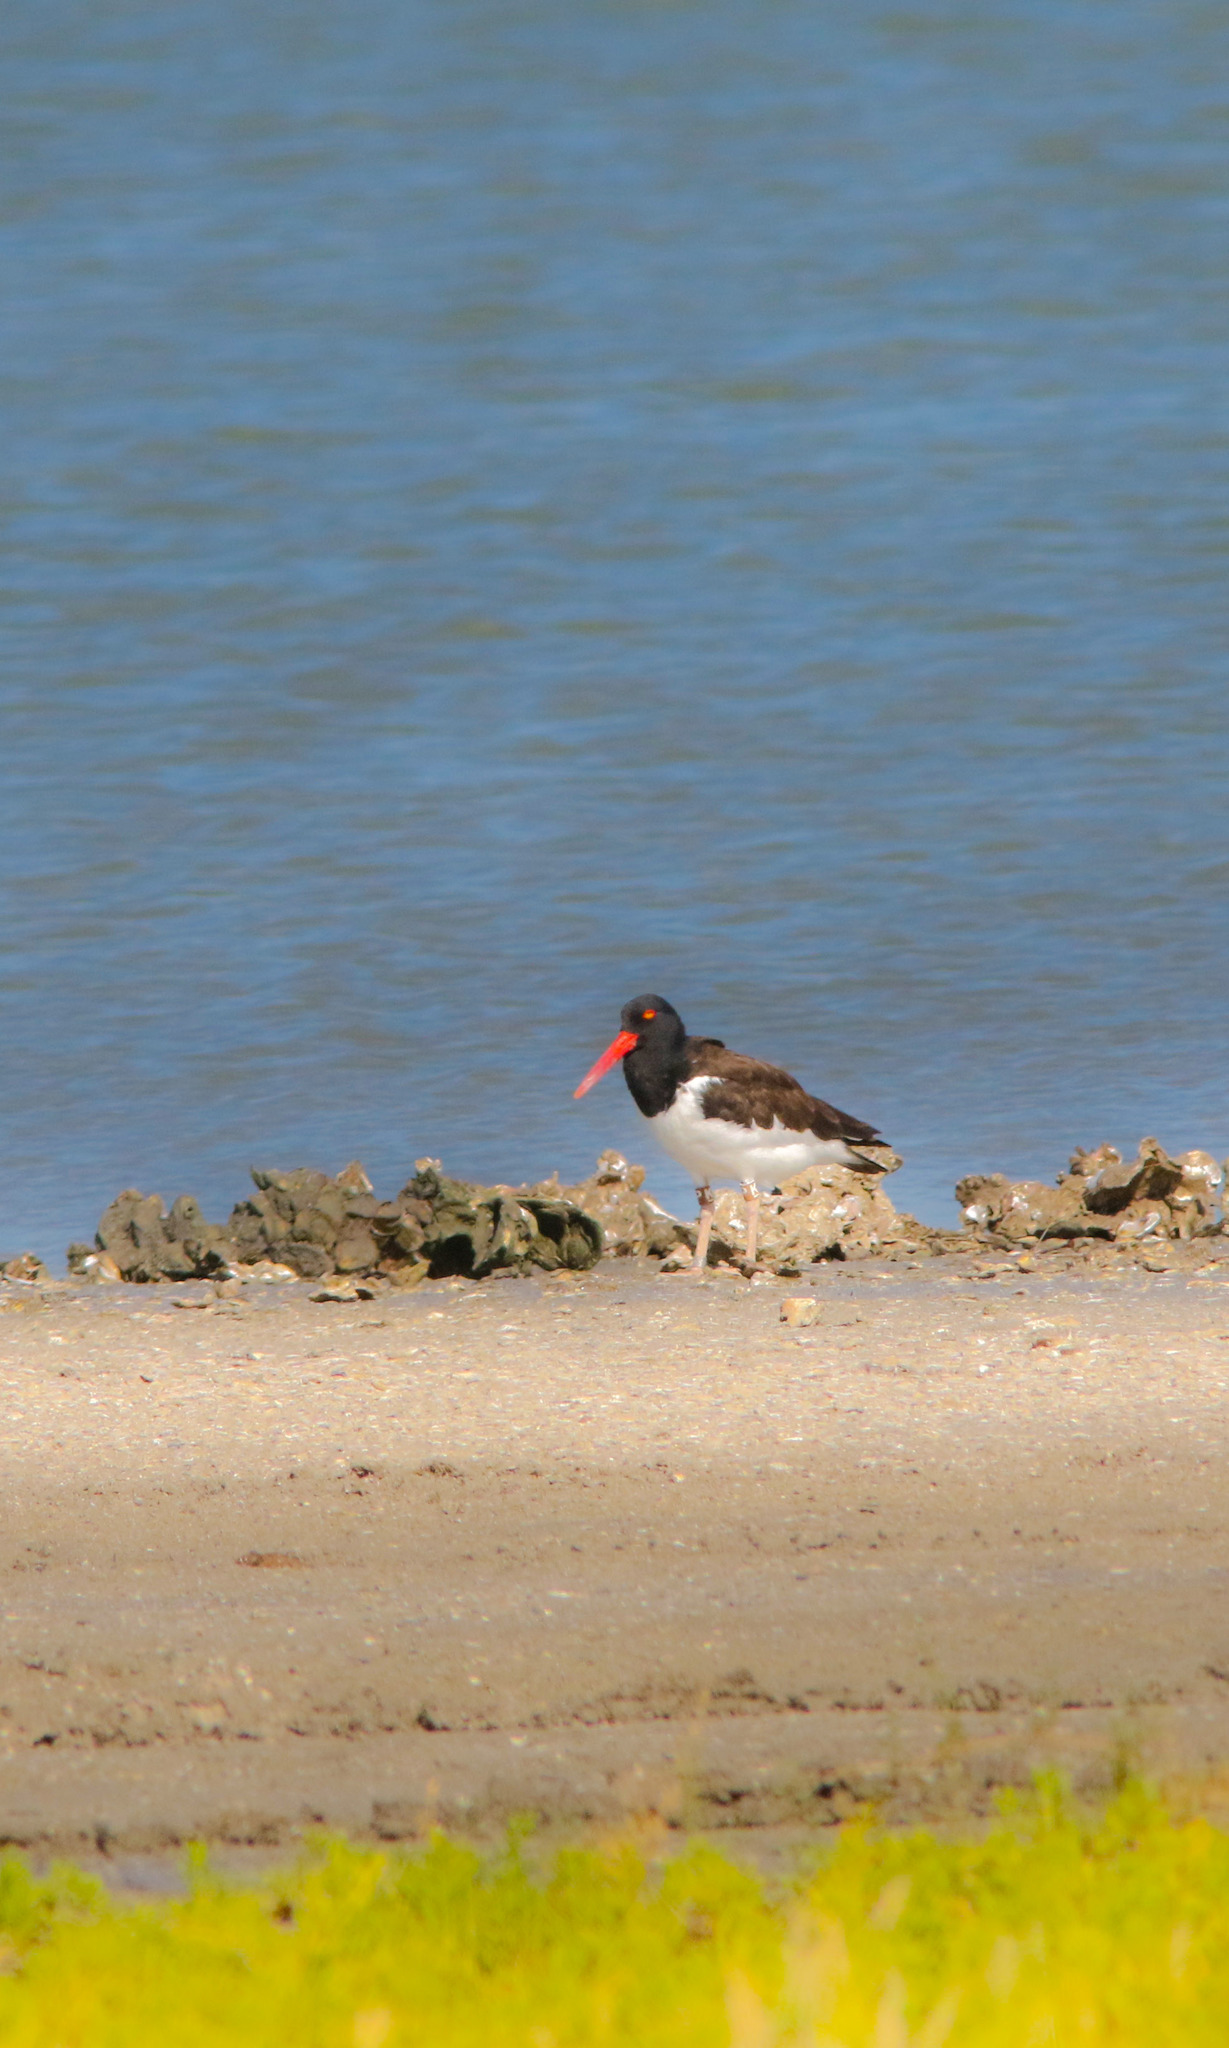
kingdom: Animalia
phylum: Chordata
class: Aves
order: Charadriiformes
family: Haematopodidae
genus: Haematopus
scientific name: Haematopus palliatus
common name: American oystercatcher
